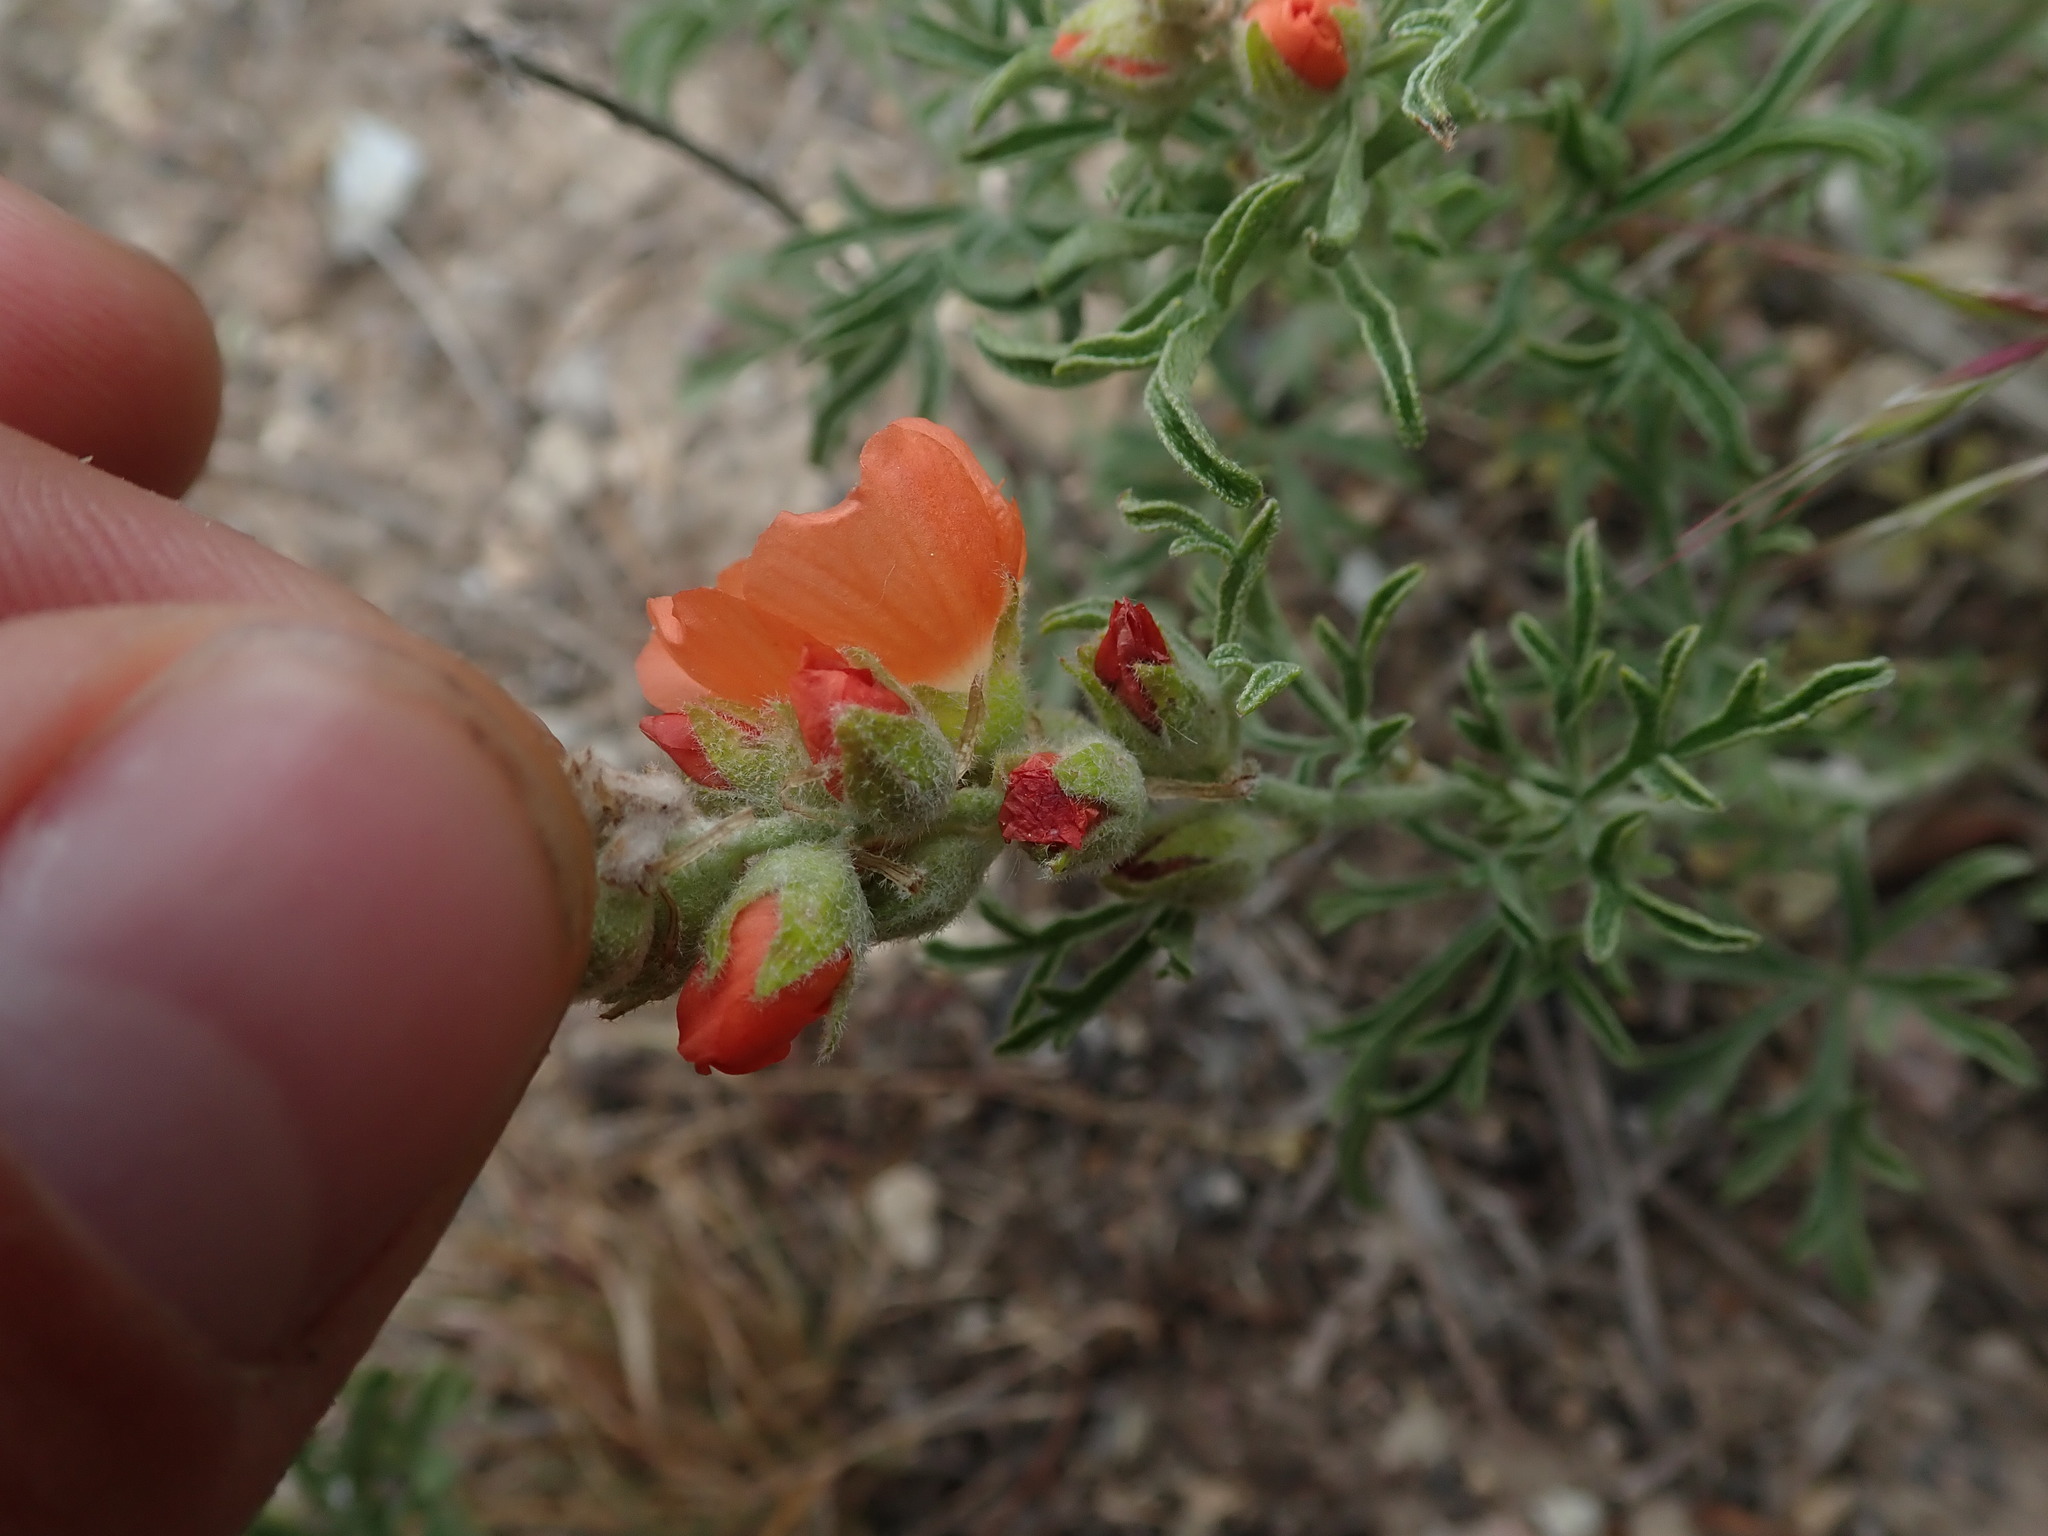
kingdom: Plantae
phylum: Tracheophyta
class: Magnoliopsida
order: Malvales
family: Malvaceae
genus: Sphaeralcea
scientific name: Sphaeralcea coccinea
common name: Moss-rose
